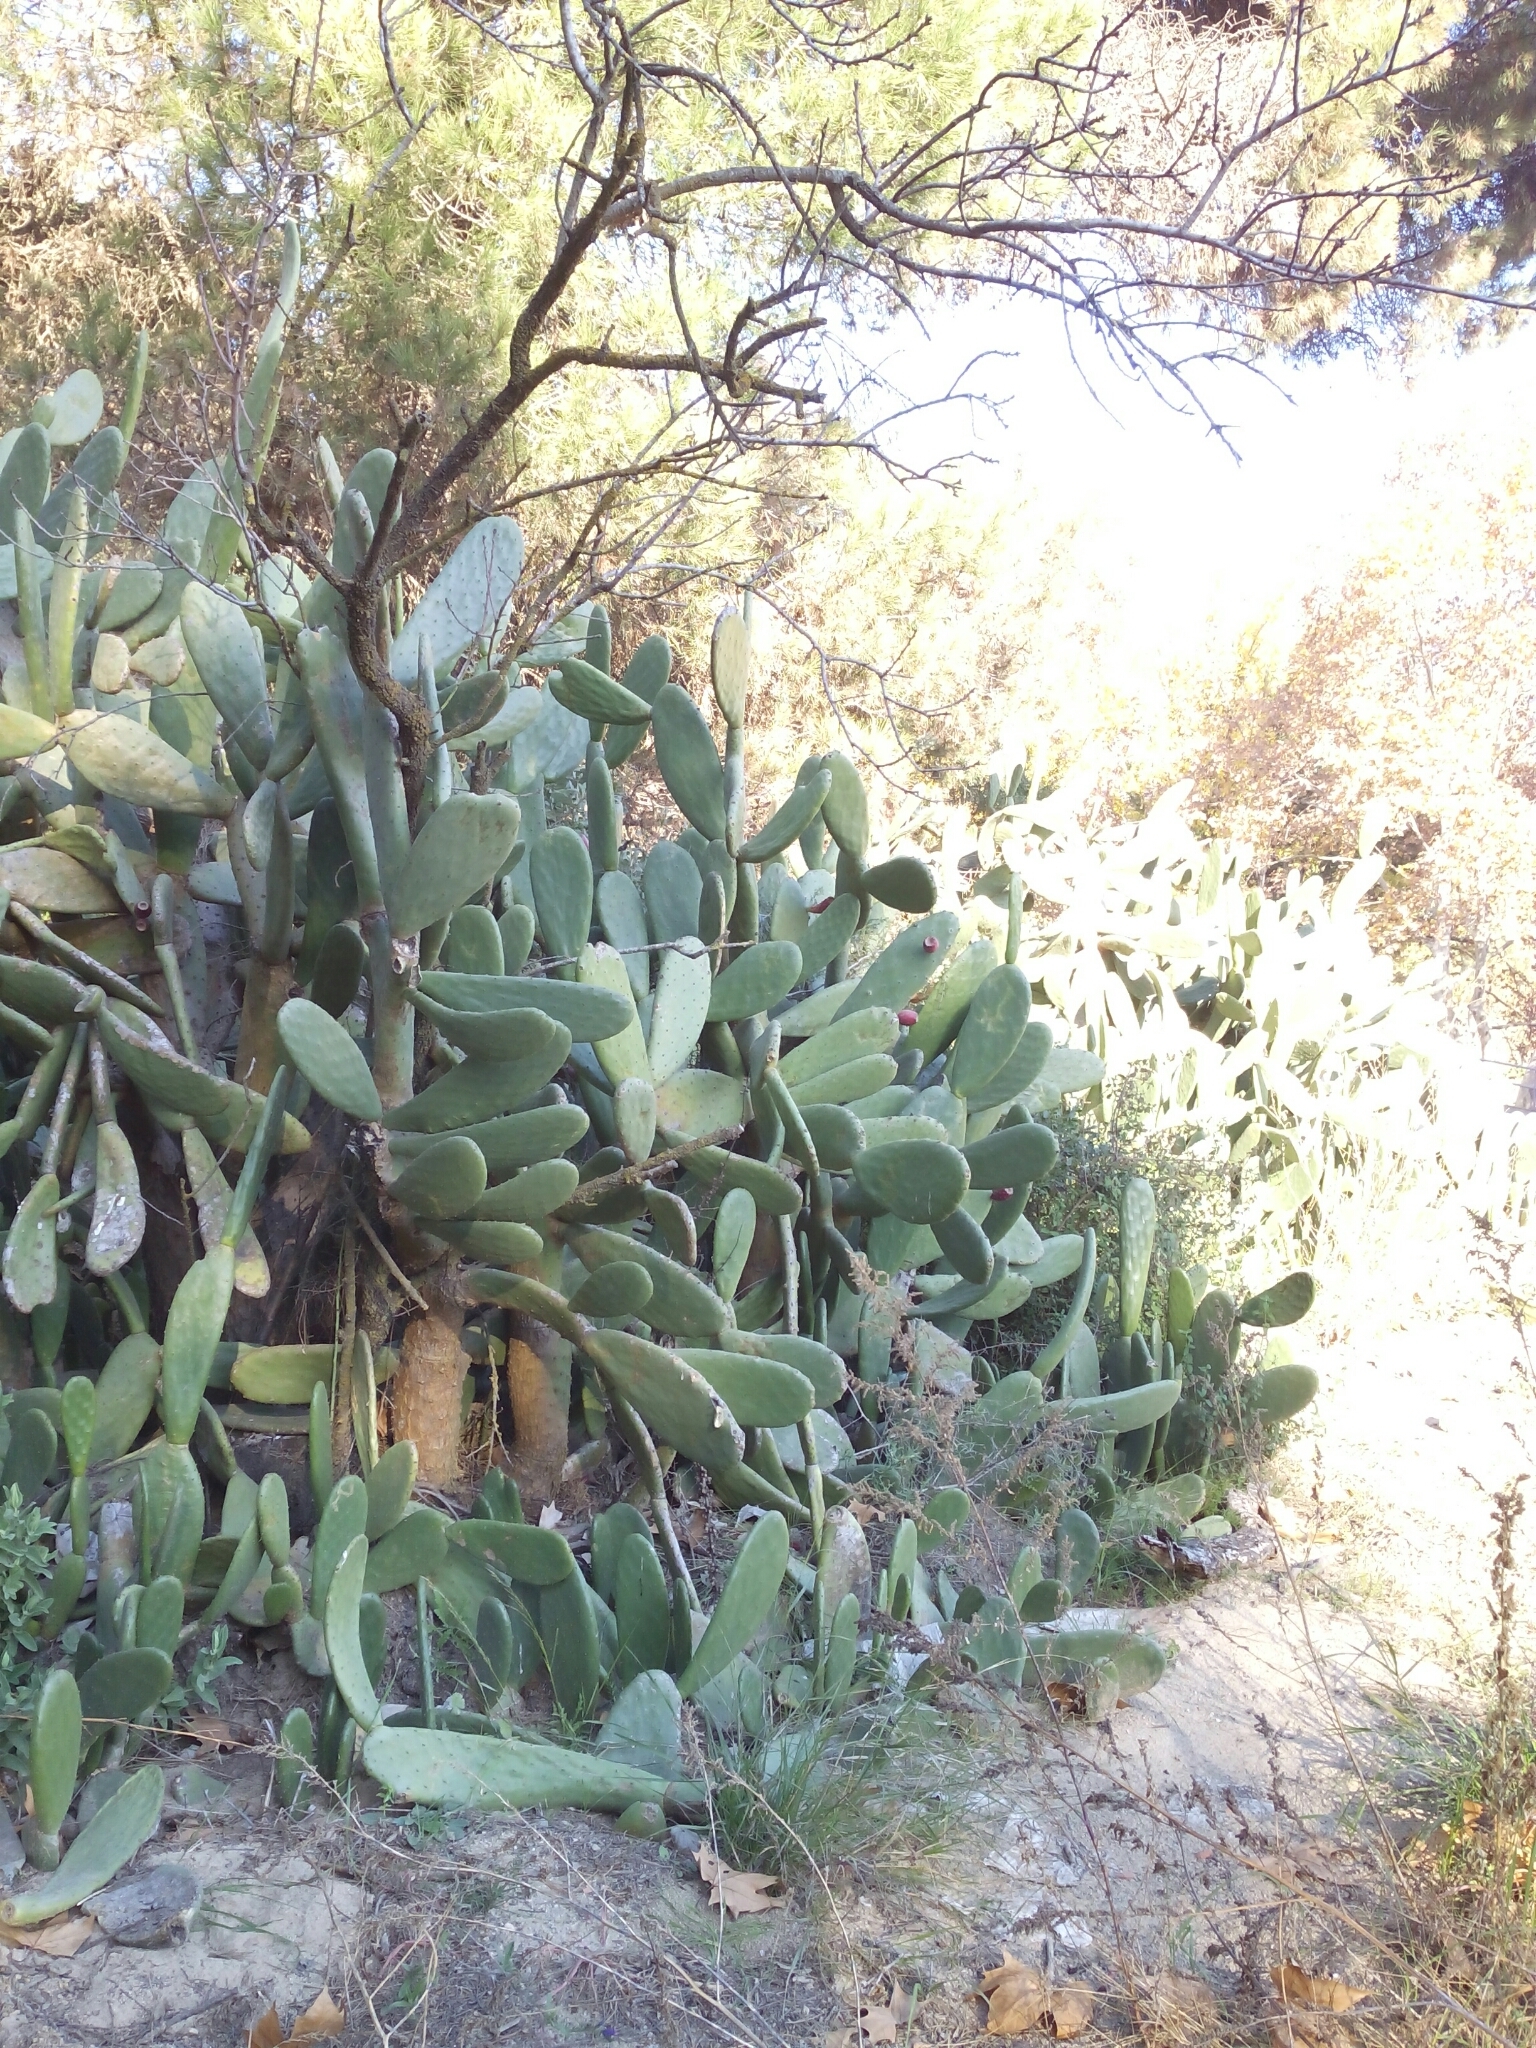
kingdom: Plantae
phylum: Tracheophyta
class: Magnoliopsida
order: Caryophyllales
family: Cactaceae
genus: Opuntia
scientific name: Opuntia ficus-indica
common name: Barbary fig
